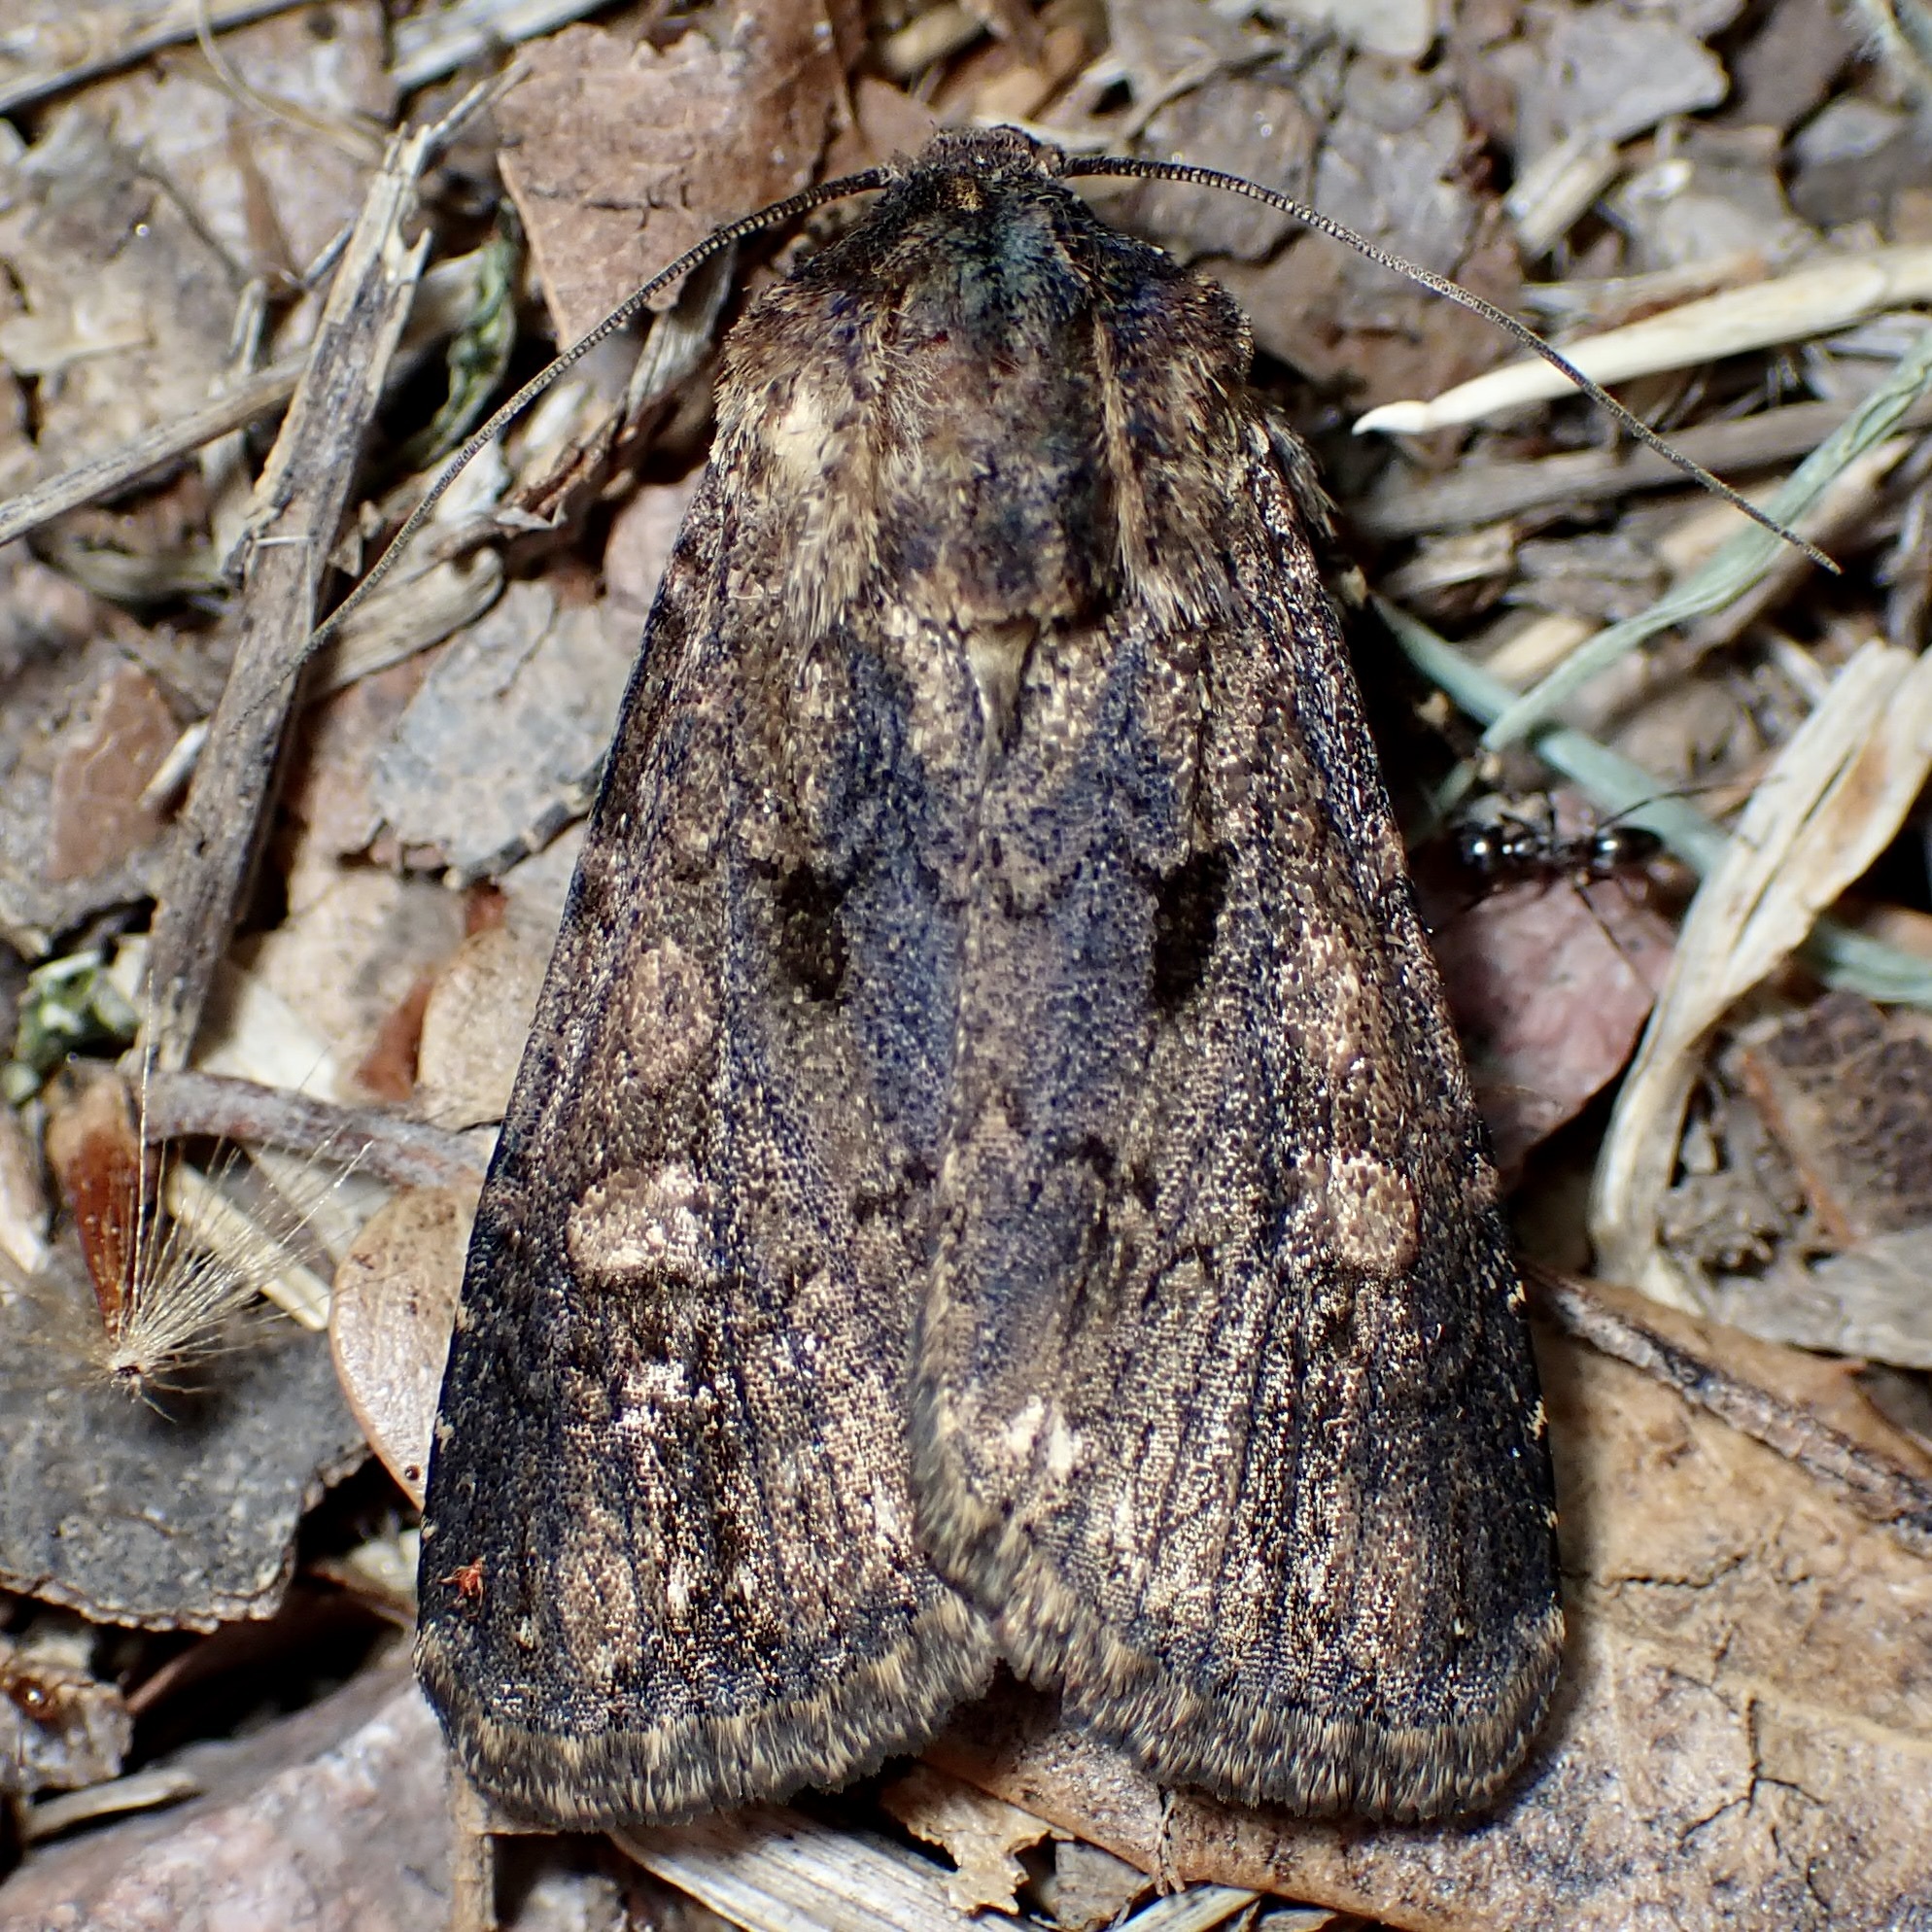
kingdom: Animalia
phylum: Arthropoda
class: Insecta
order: Lepidoptera
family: Noctuidae
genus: Dichagyris
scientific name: Dichagyris proclivis
